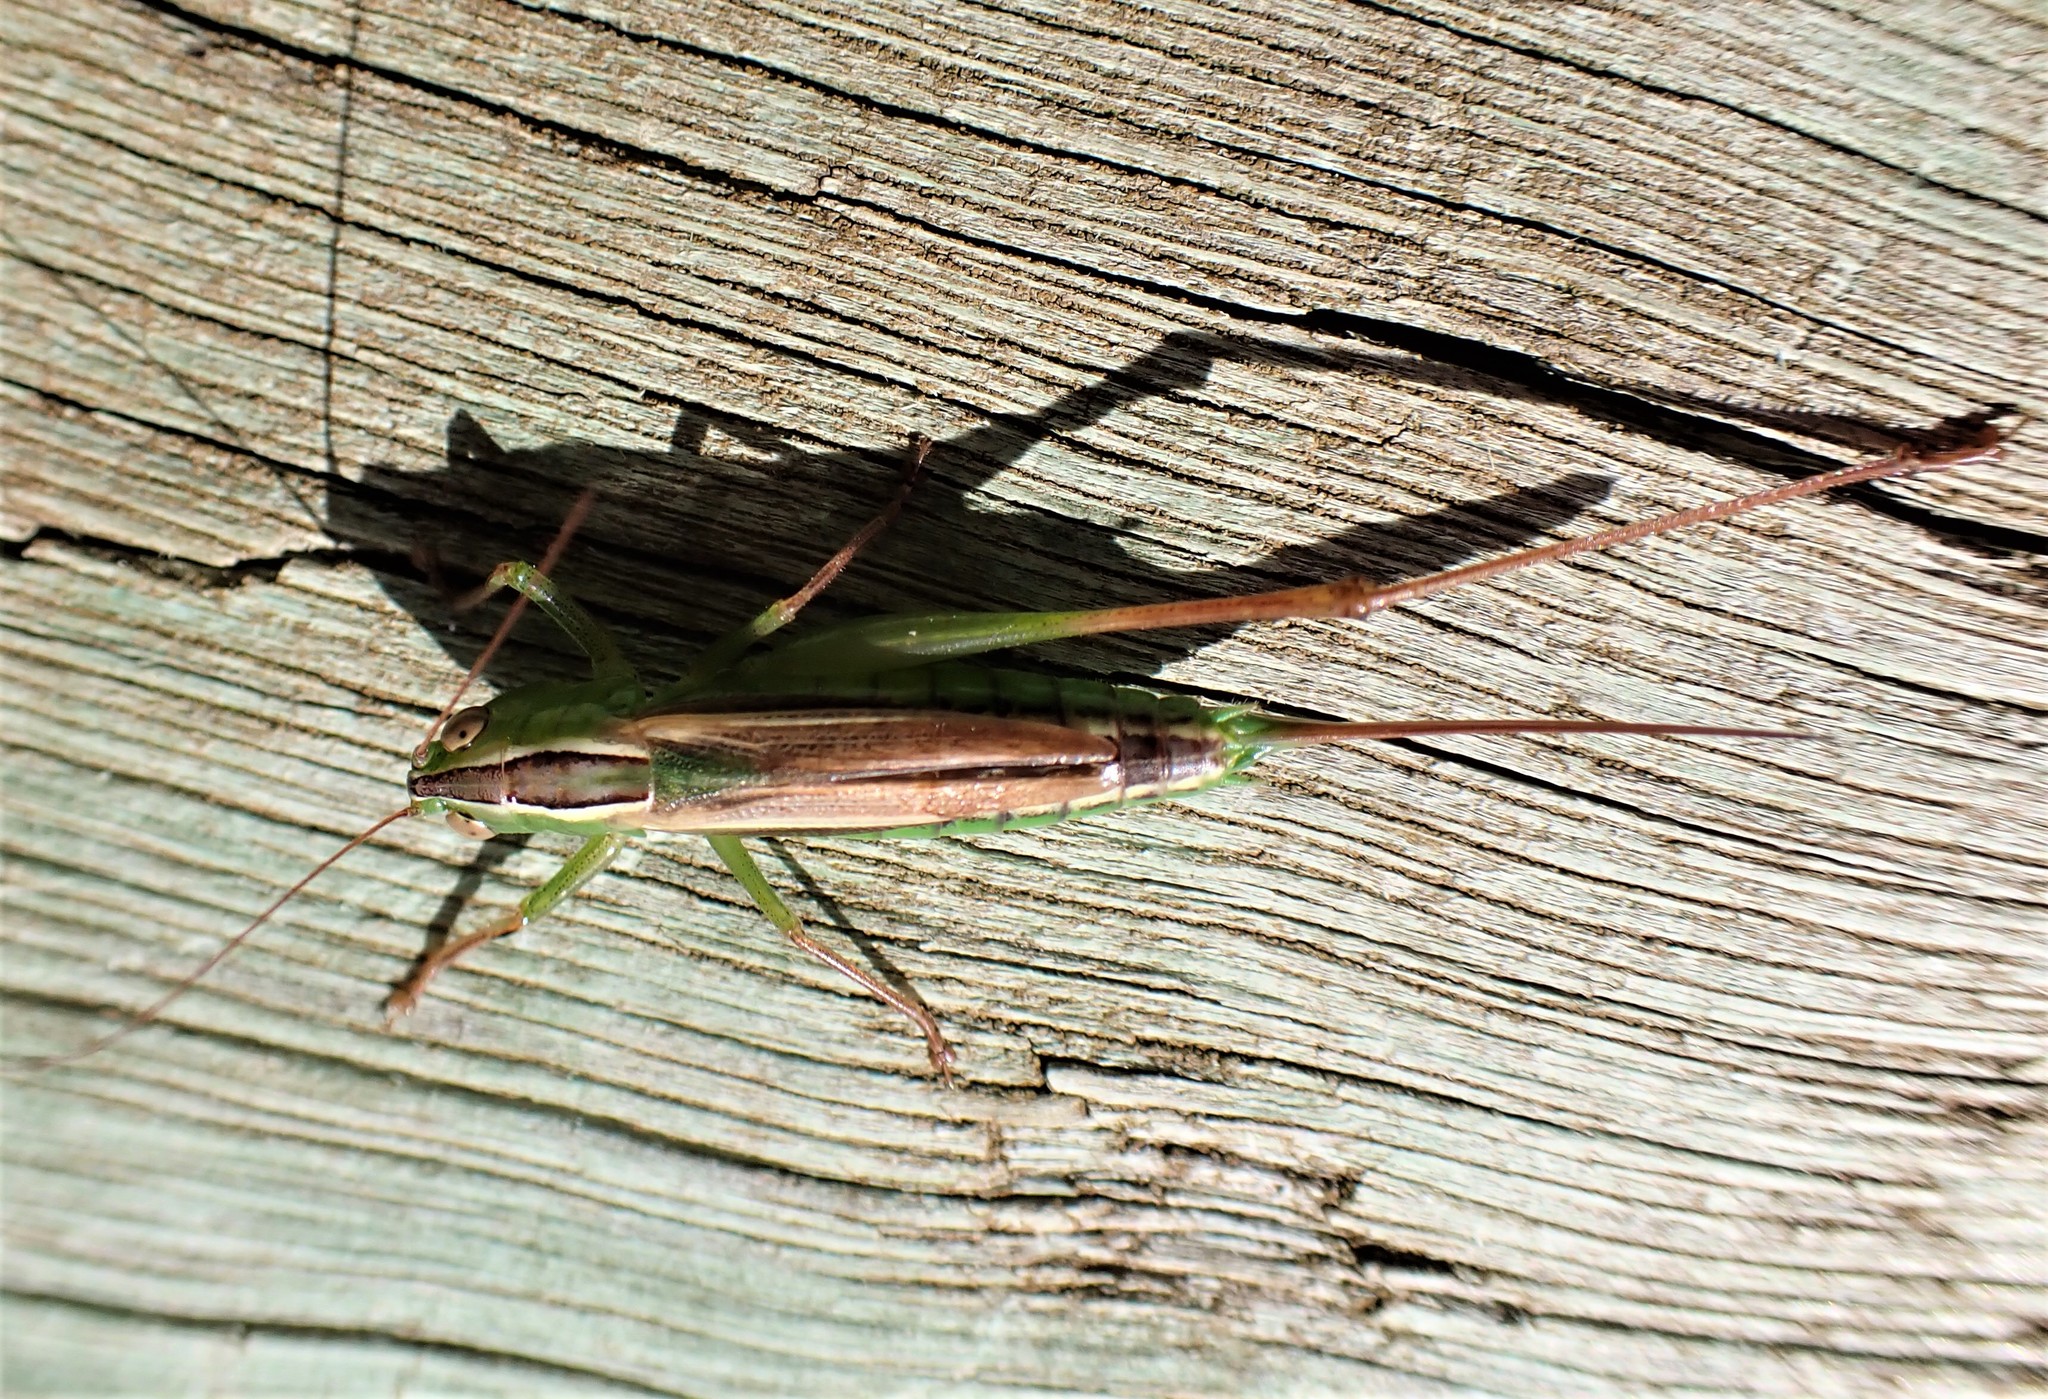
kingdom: Animalia
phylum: Arthropoda
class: Insecta
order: Orthoptera
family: Tettigoniidae
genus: Conocephalus
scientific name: Conocephalus albescens
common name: Whitish meadow katydid
